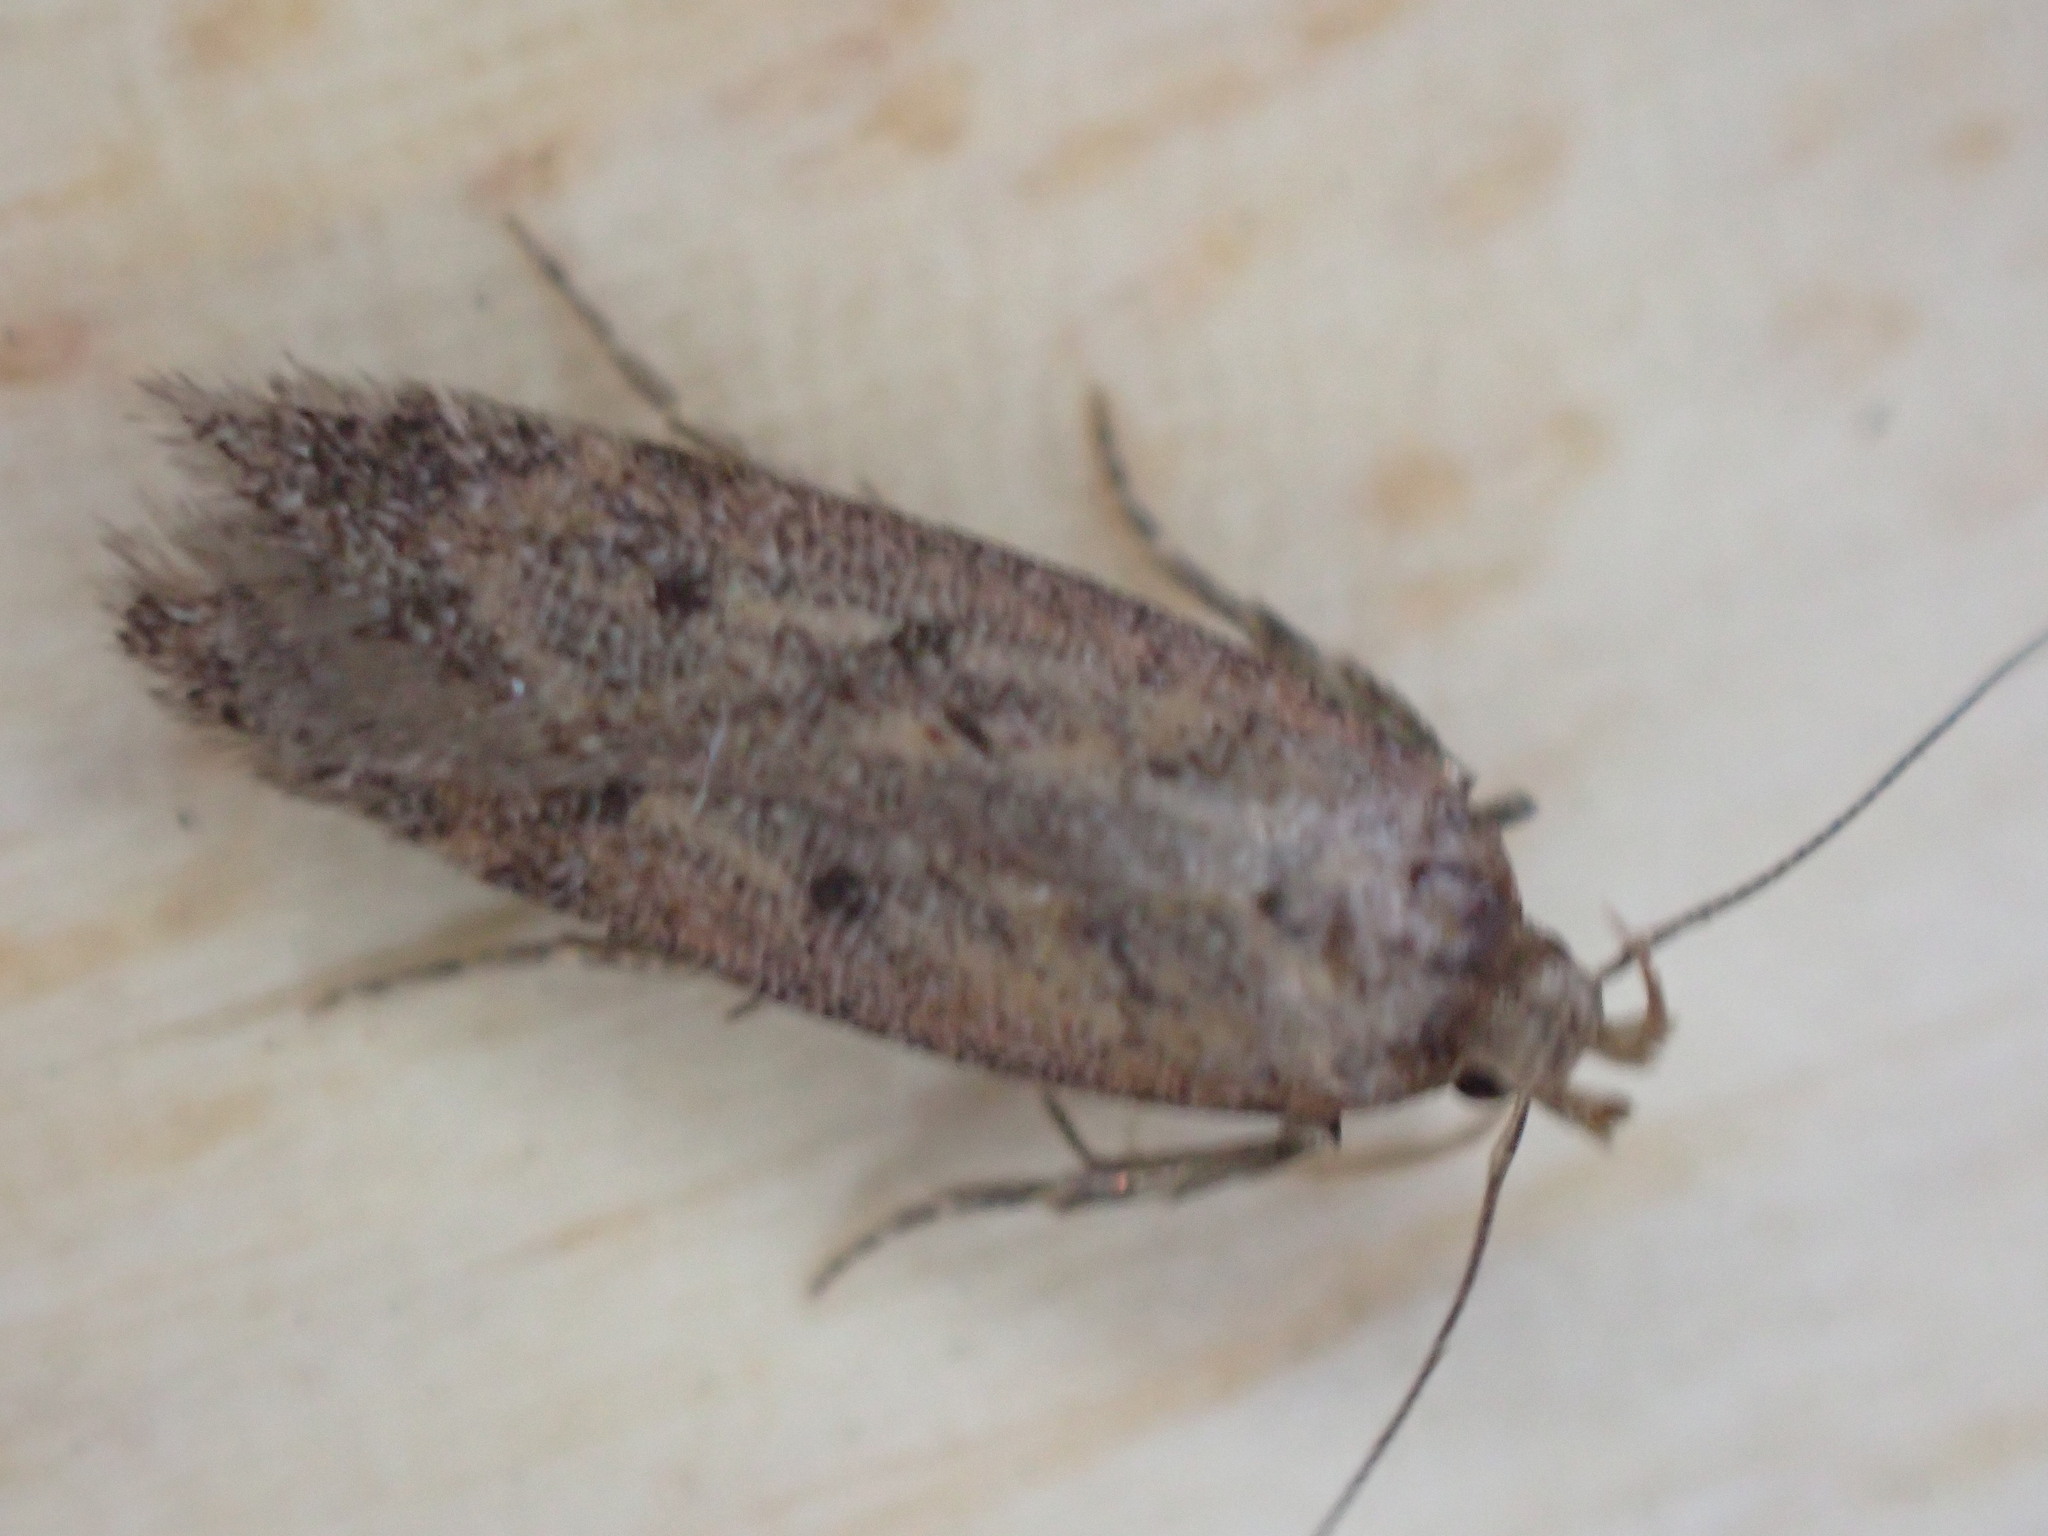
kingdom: Animalia
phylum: Arthropoda
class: Insecta
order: Lepidoptera
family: Gelechiidae
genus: Bryotropha
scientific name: Bryotropha terrella
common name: Cinerous groundling
